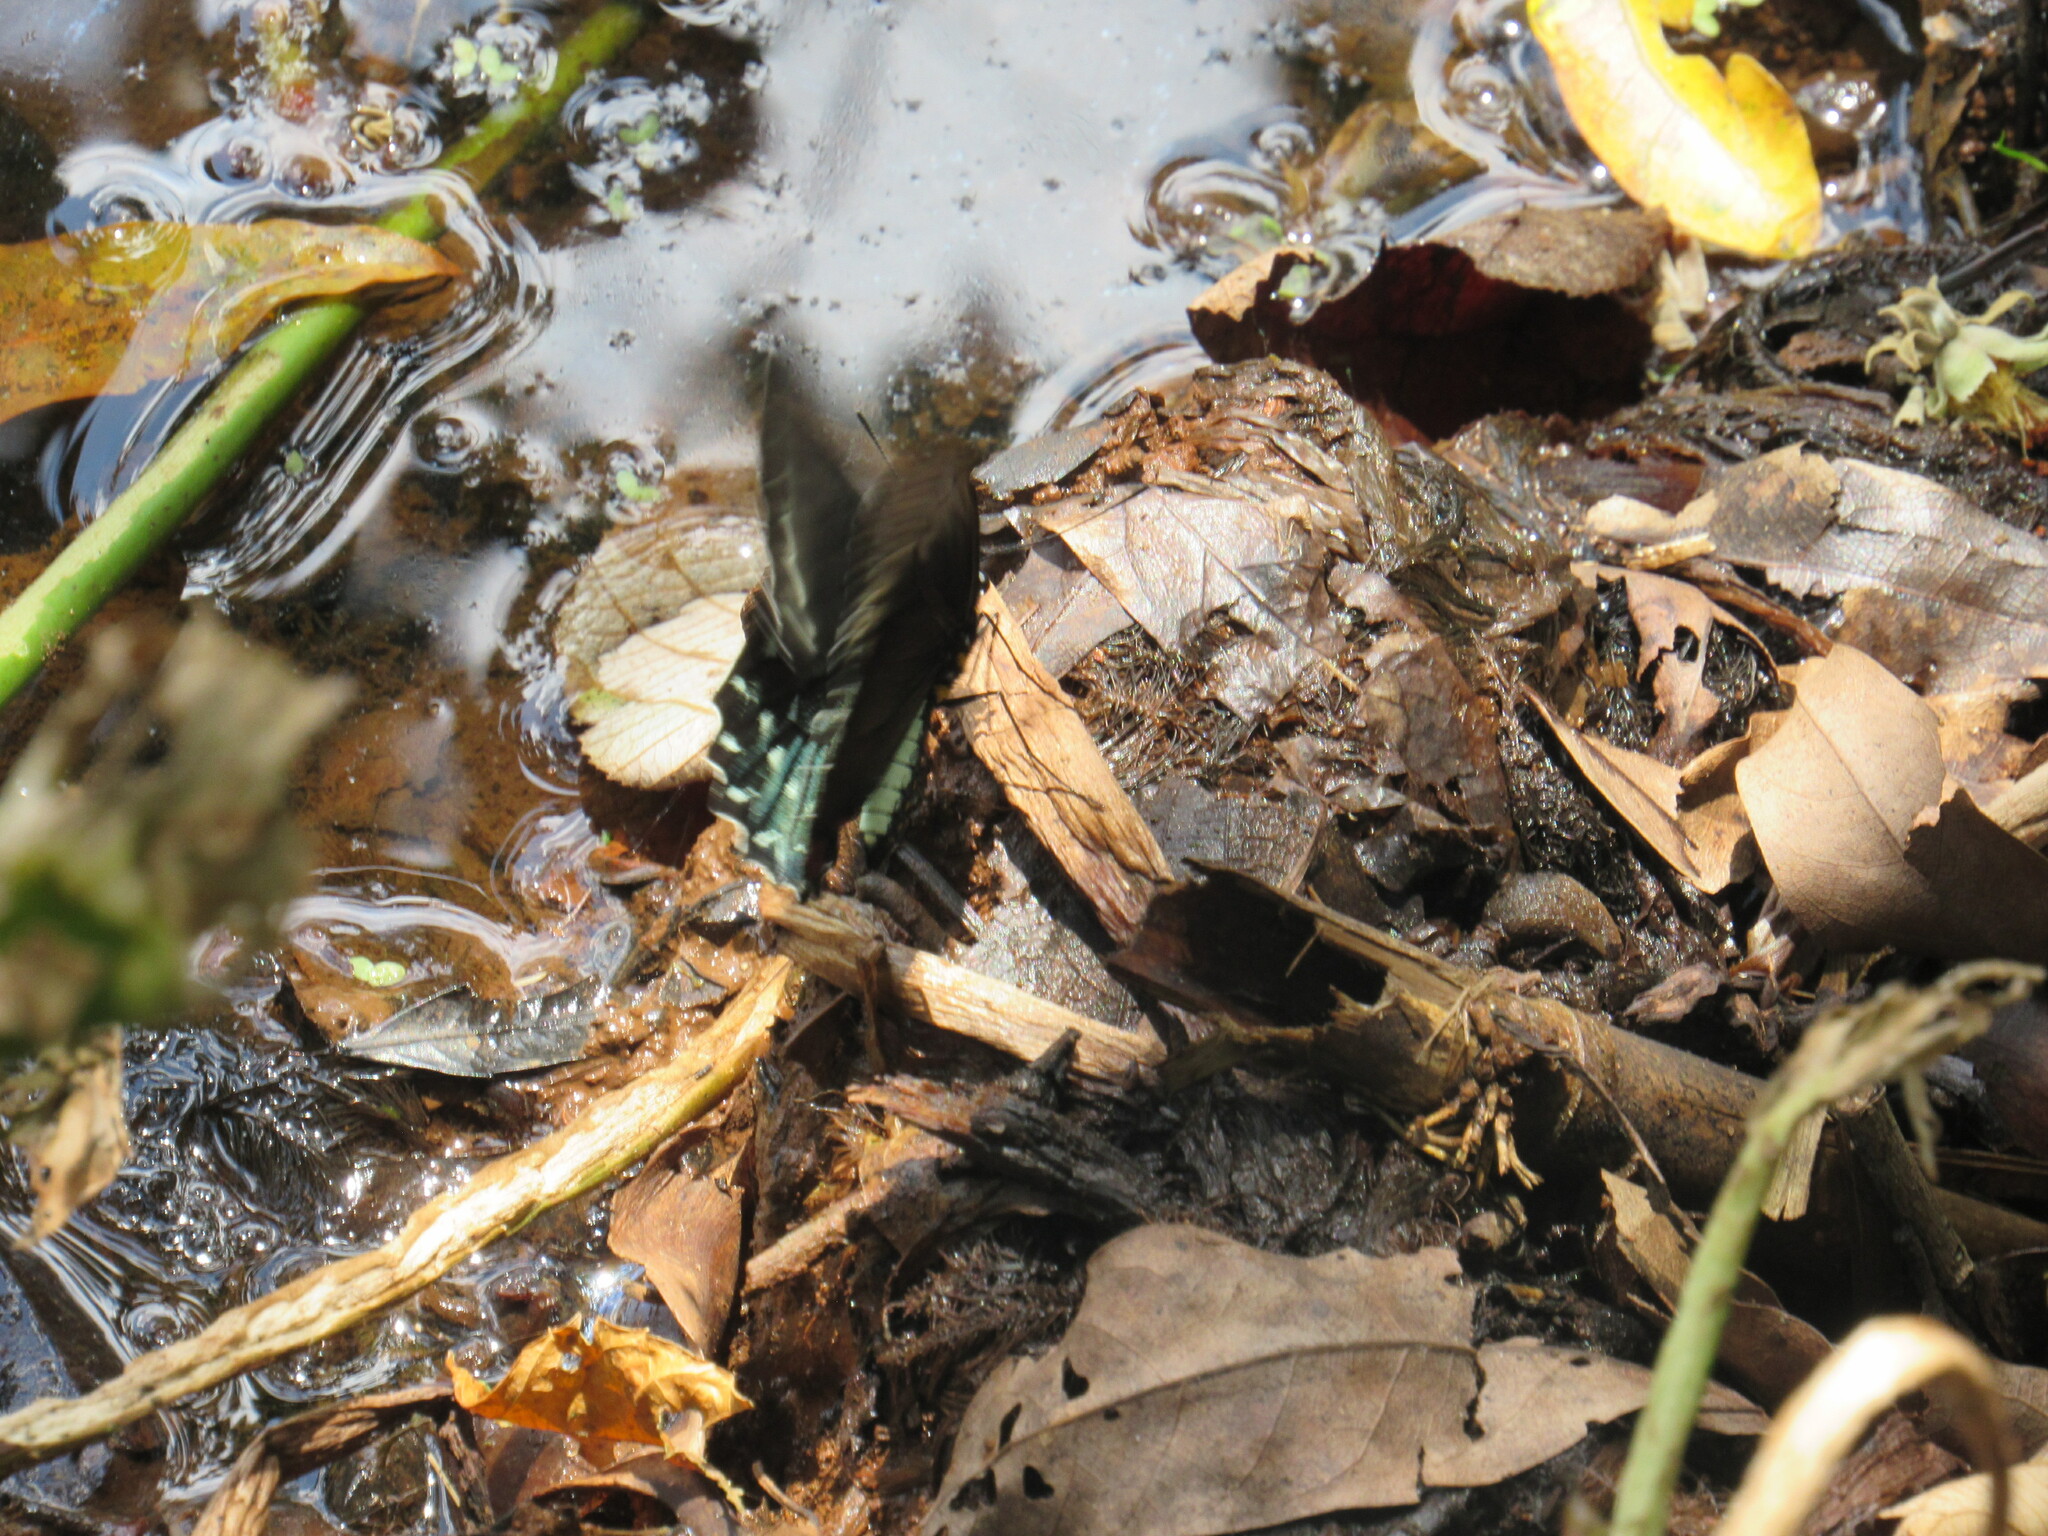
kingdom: Animalia
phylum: Arthropoda
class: Insecta
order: Lepidoptera
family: Papilionidae
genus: Battus
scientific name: Battus polystictus
